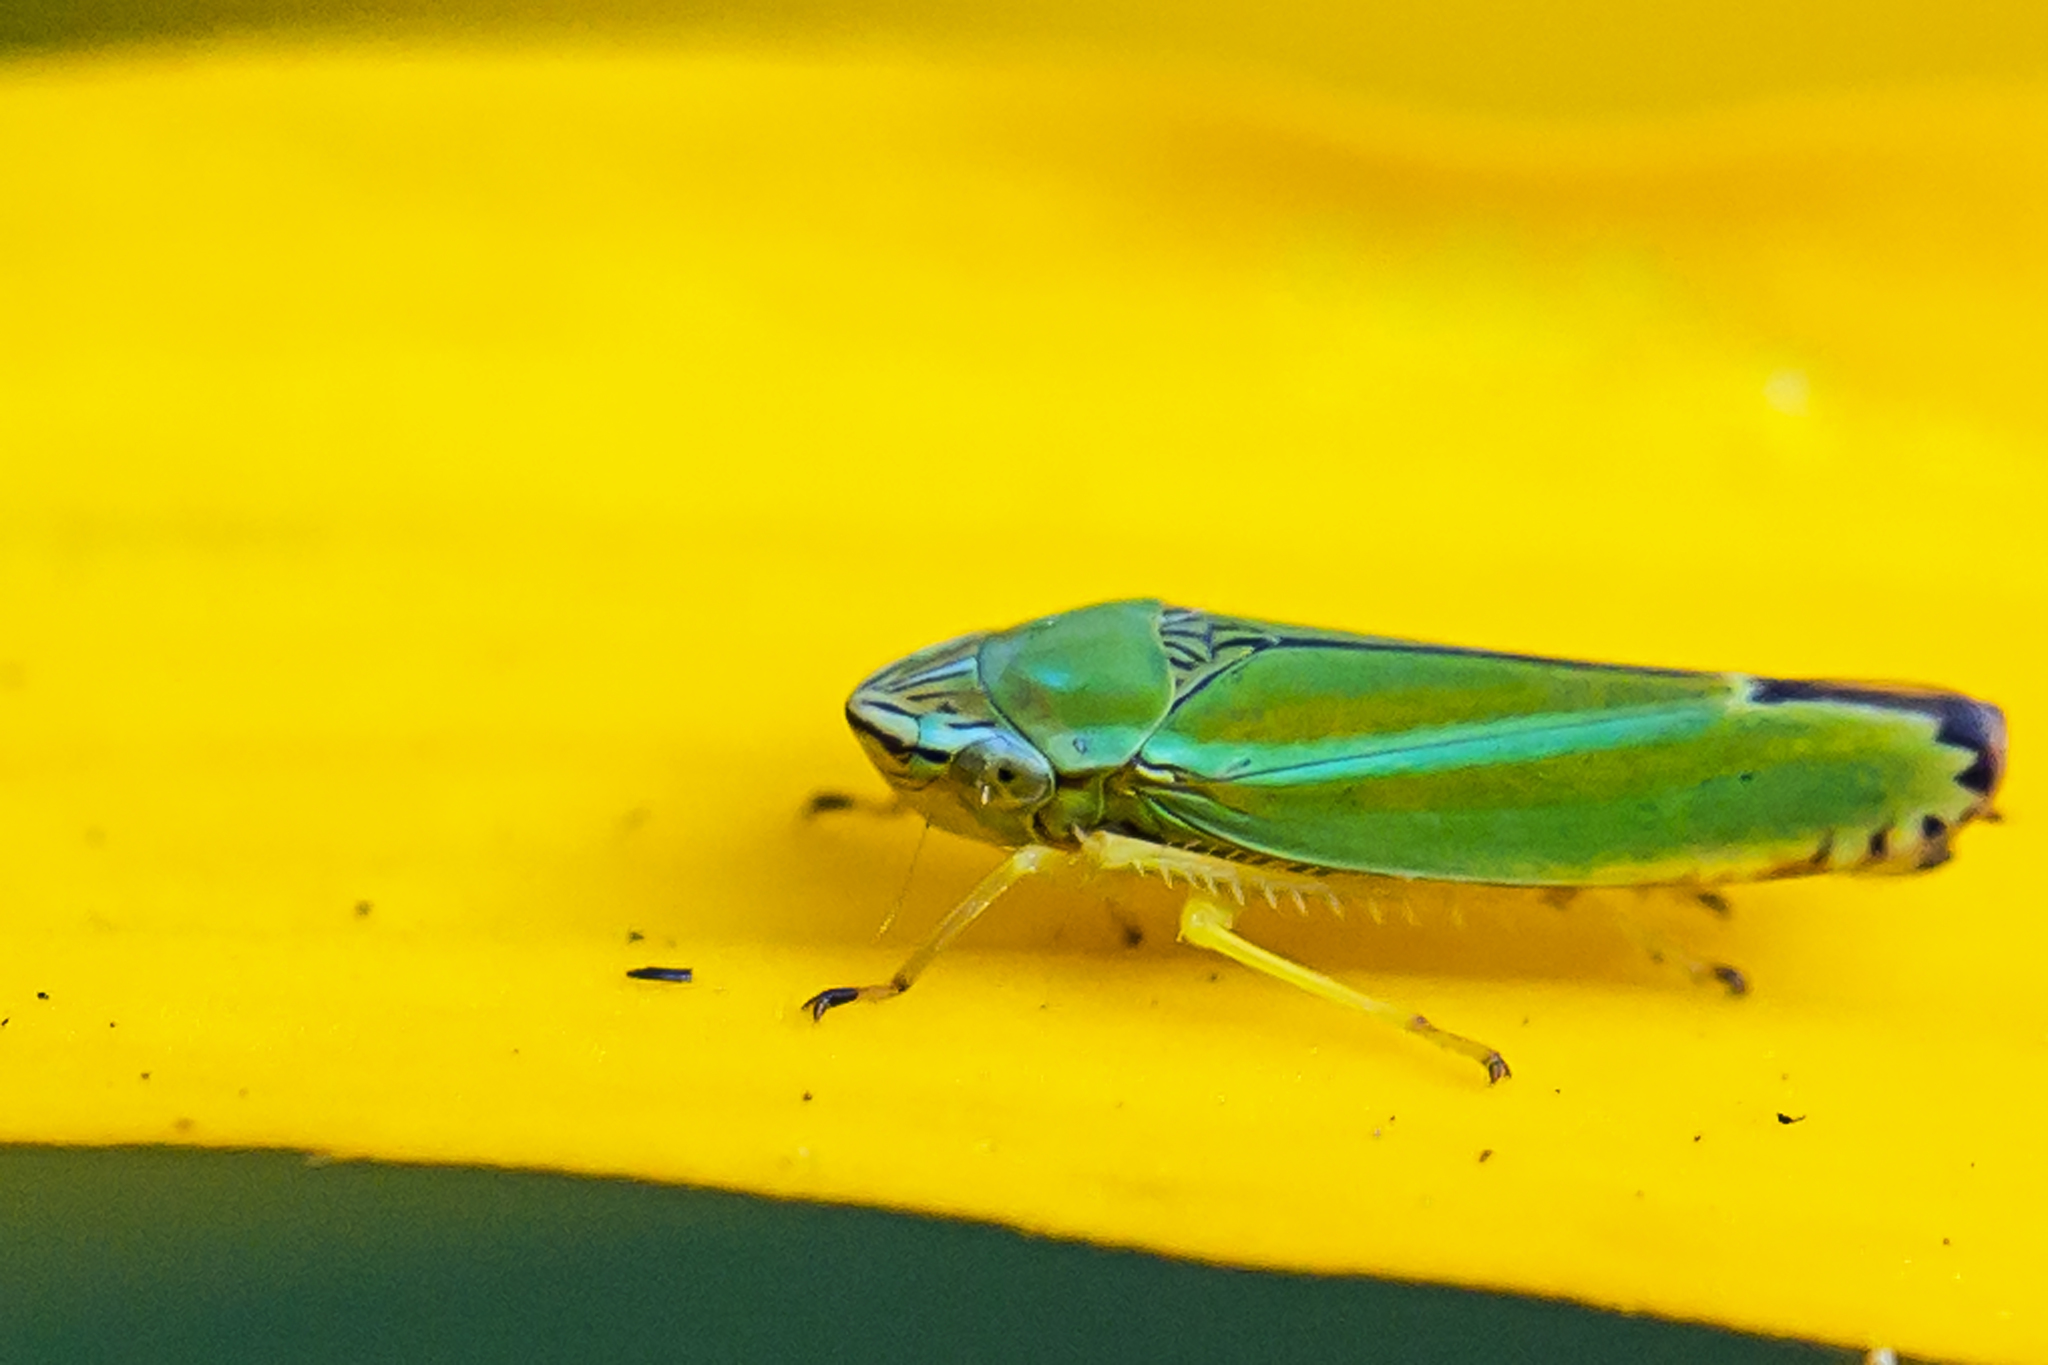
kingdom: Animalia
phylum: Arthropoda
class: Insecta
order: Hemiptera
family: Cicadellidae
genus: Graphocephala
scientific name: Graphocephala versuta
